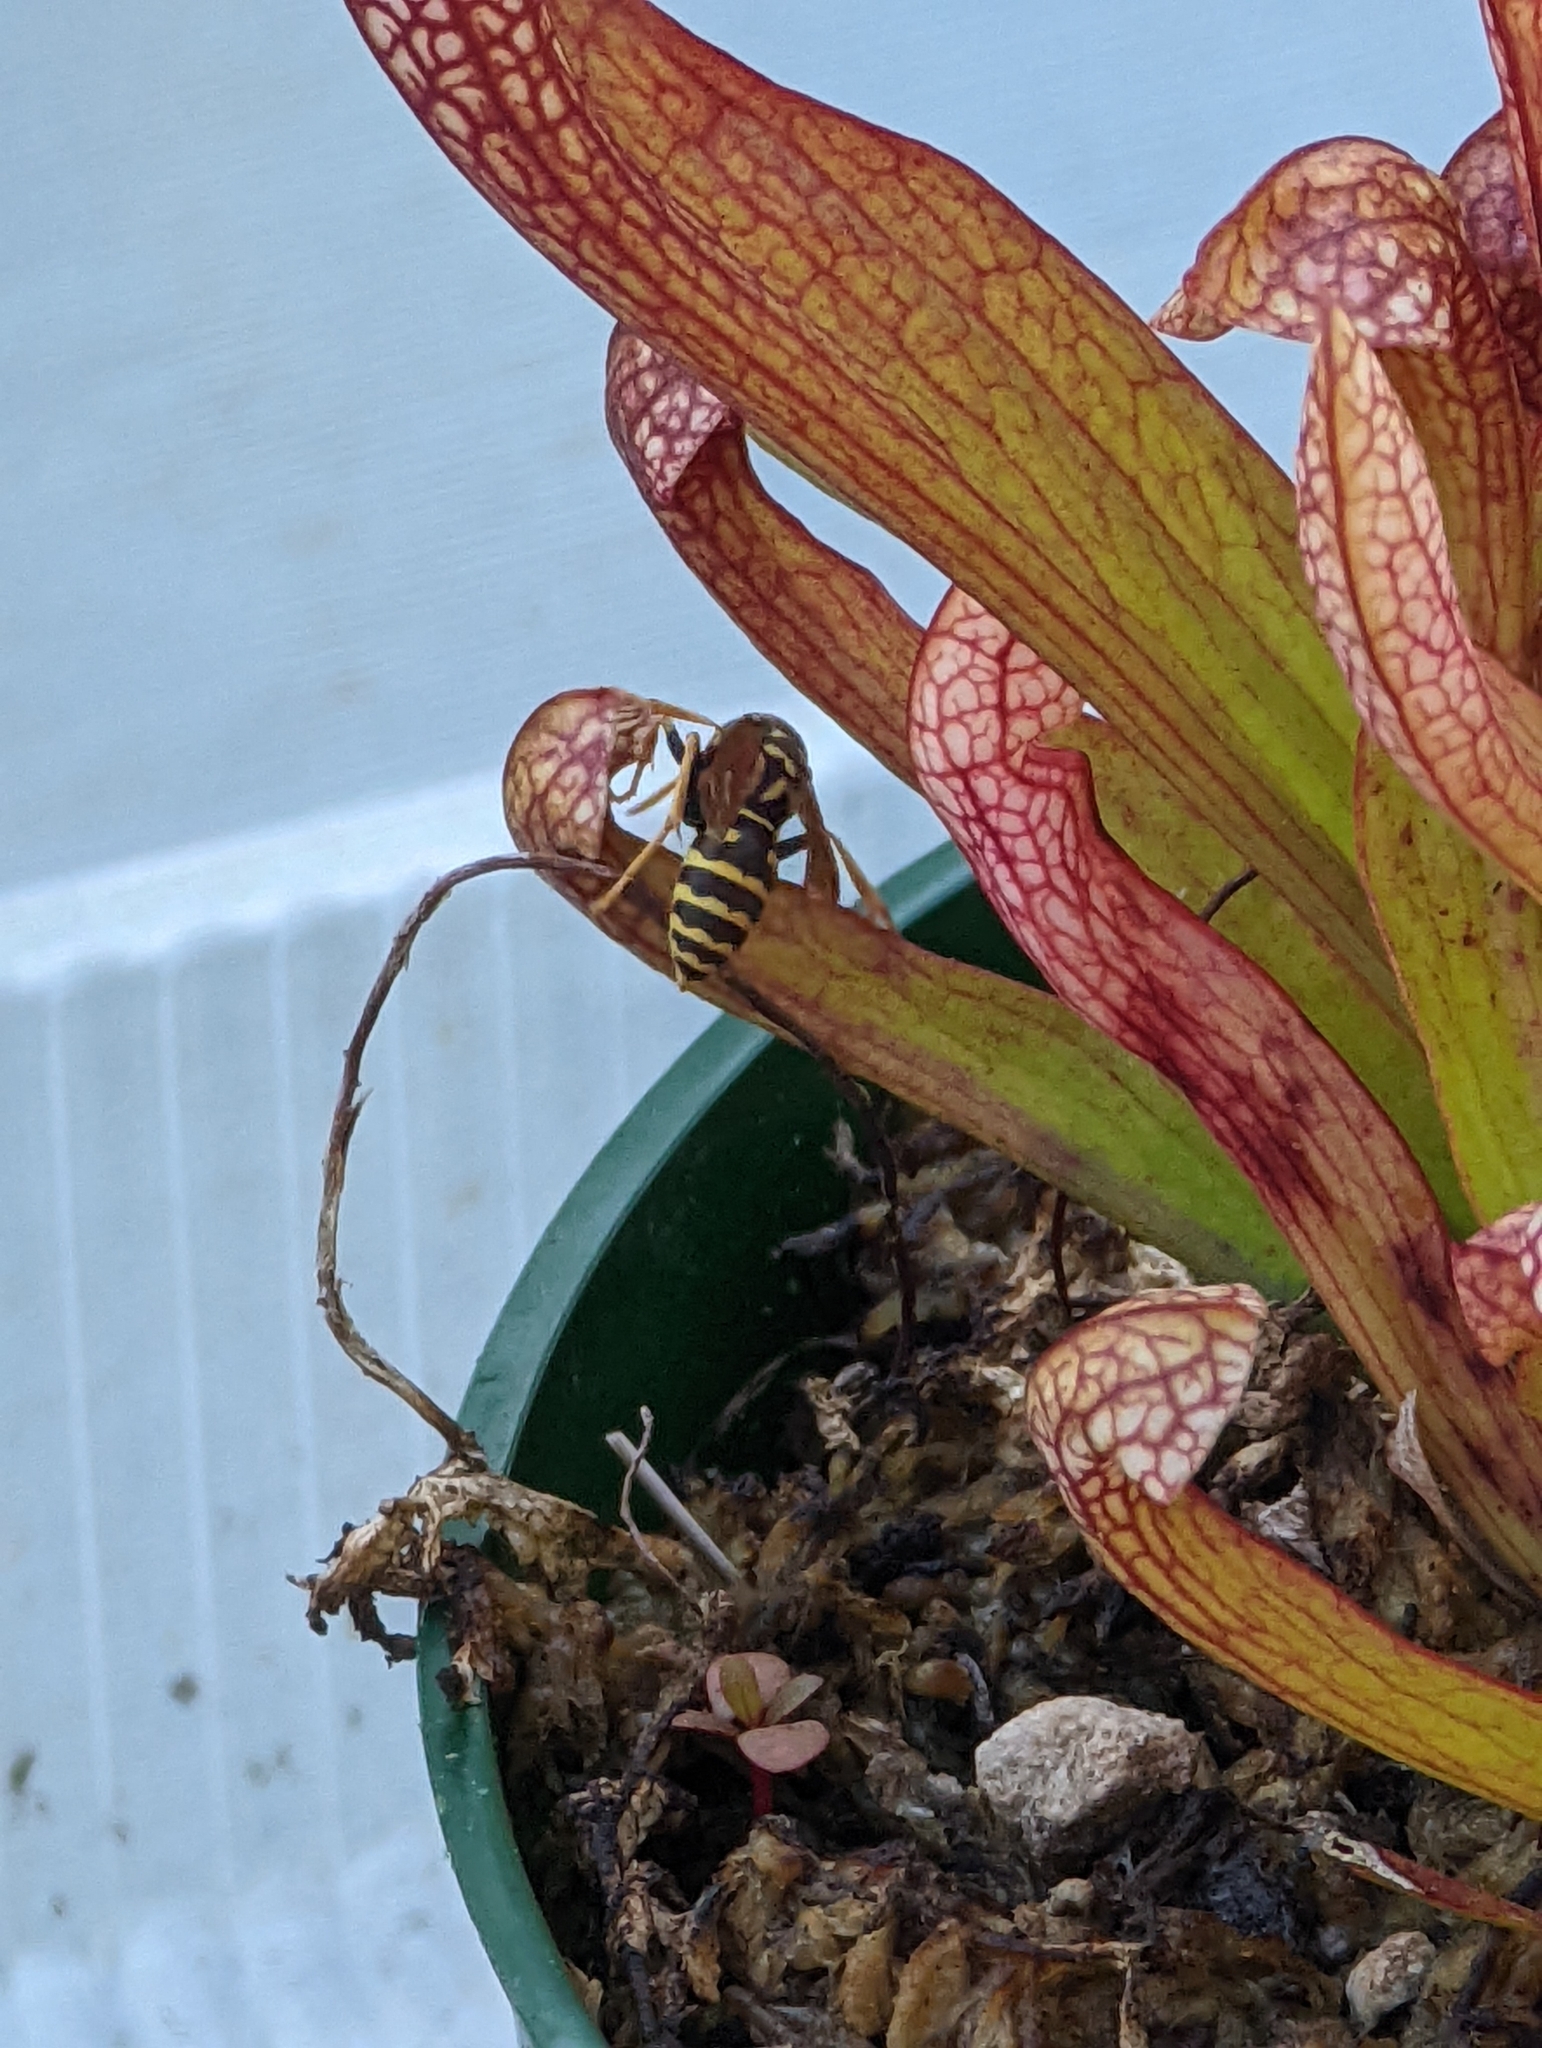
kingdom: Animalia
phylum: Arthropoda
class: Insecta
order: Hymenoptera
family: Eumenidae
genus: Polistes
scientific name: Polistes dominula
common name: Paper wasp
